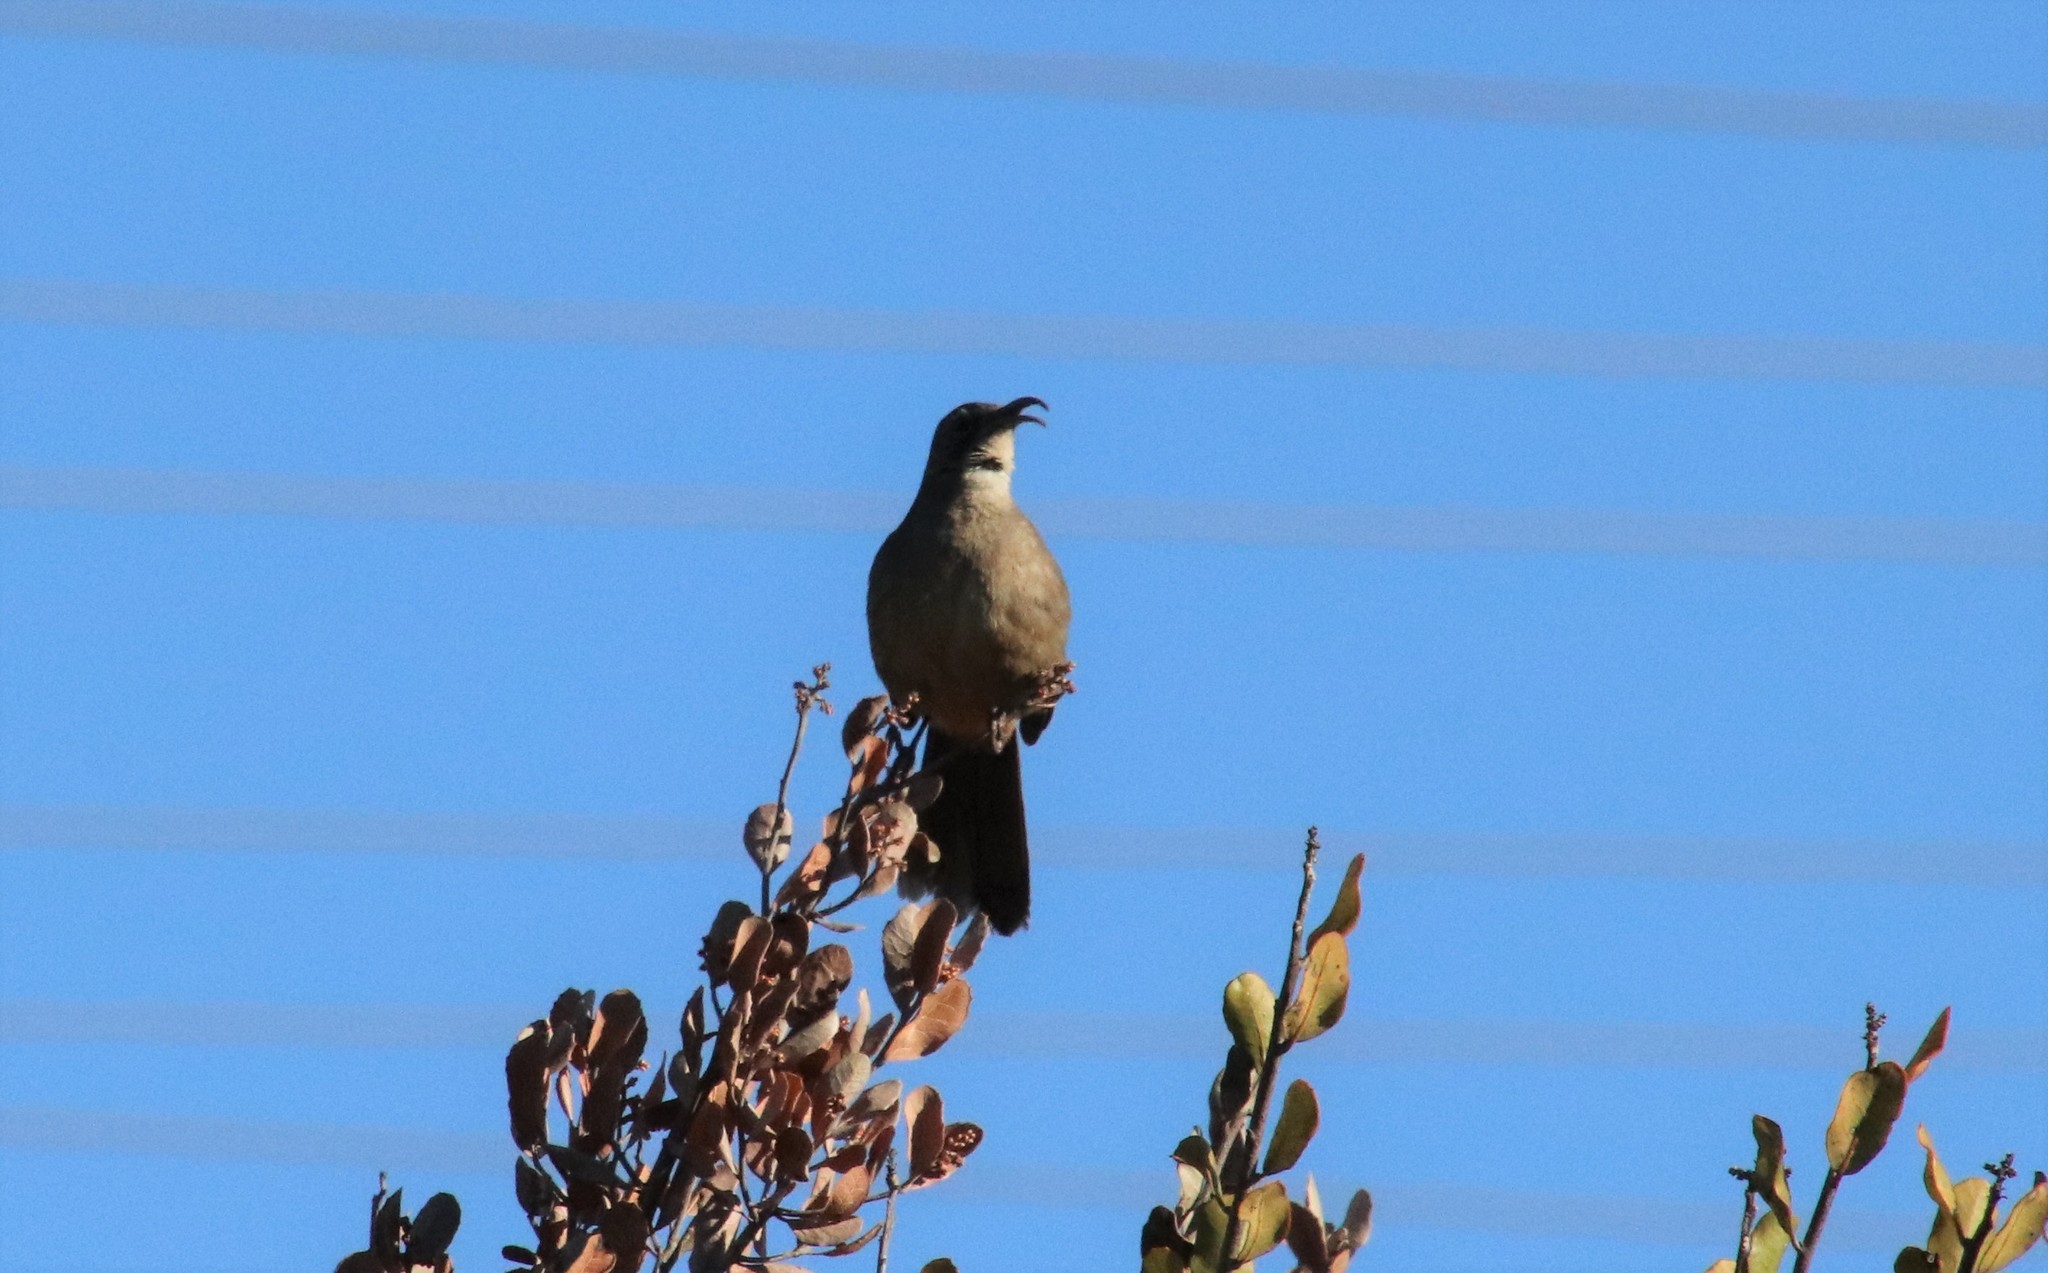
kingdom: Animalia
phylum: Chordata
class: Aves
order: Passeriformes
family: Mimidae
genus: Toxostoma
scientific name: Toxostoma redivivum
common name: California thrasher
